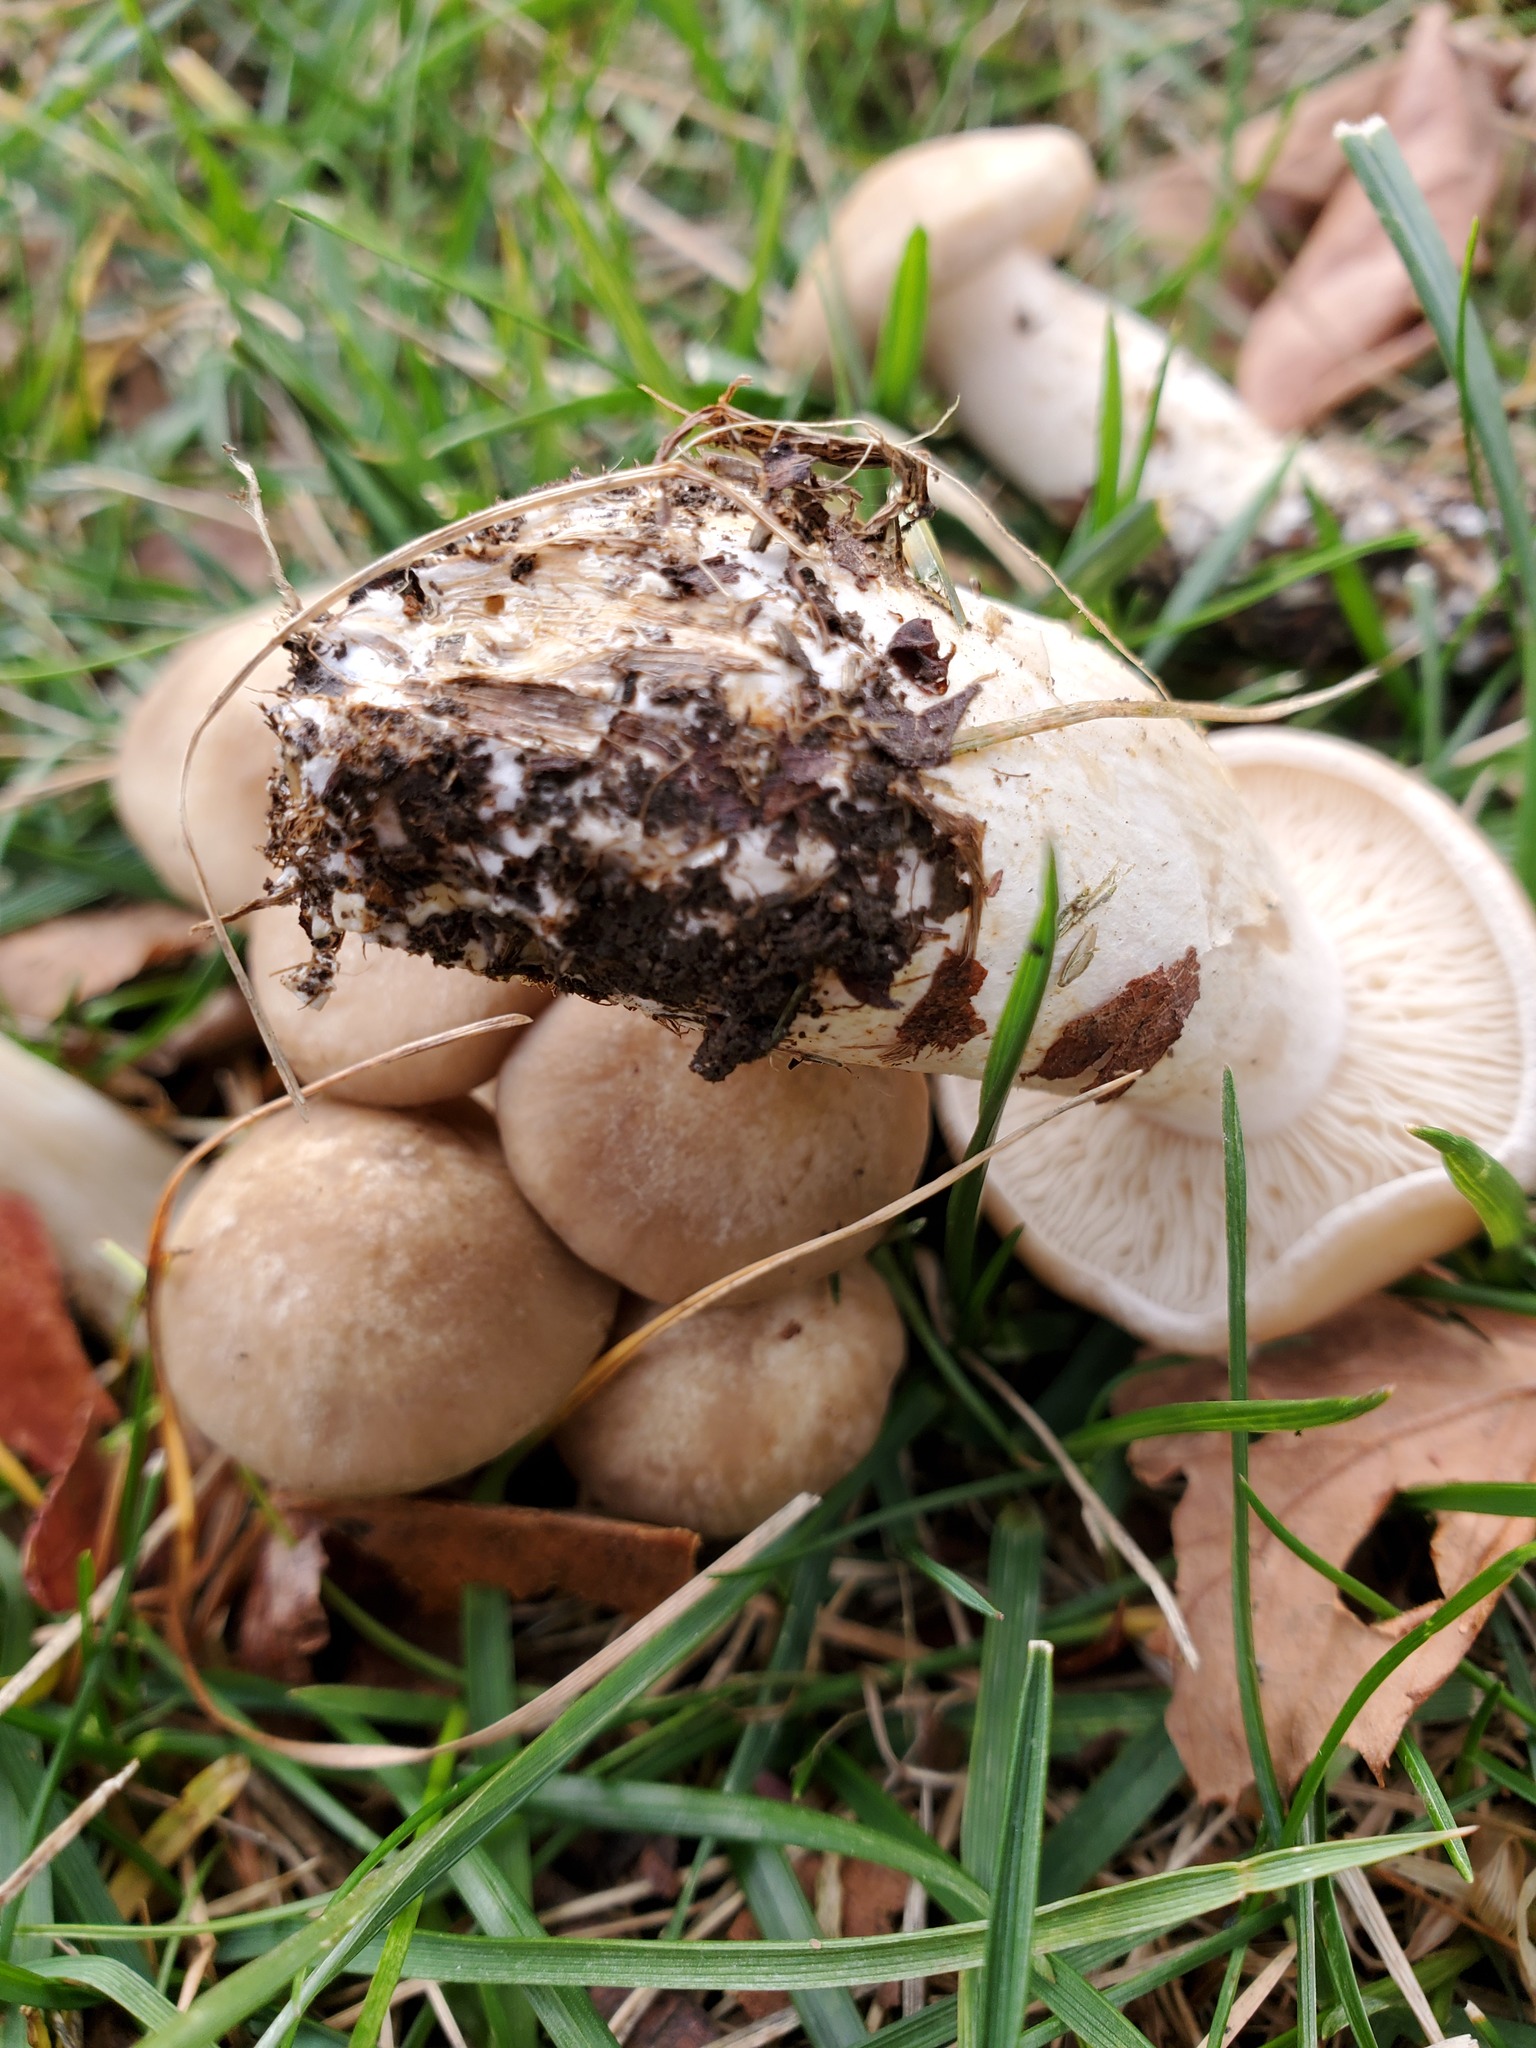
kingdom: Fungi
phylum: Basidiomycota
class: Agaricomycetes
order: Agaricales
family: Lyophyllaceae
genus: Lyophyllum
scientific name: Lyophyllum decastes
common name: Clustered domecap
